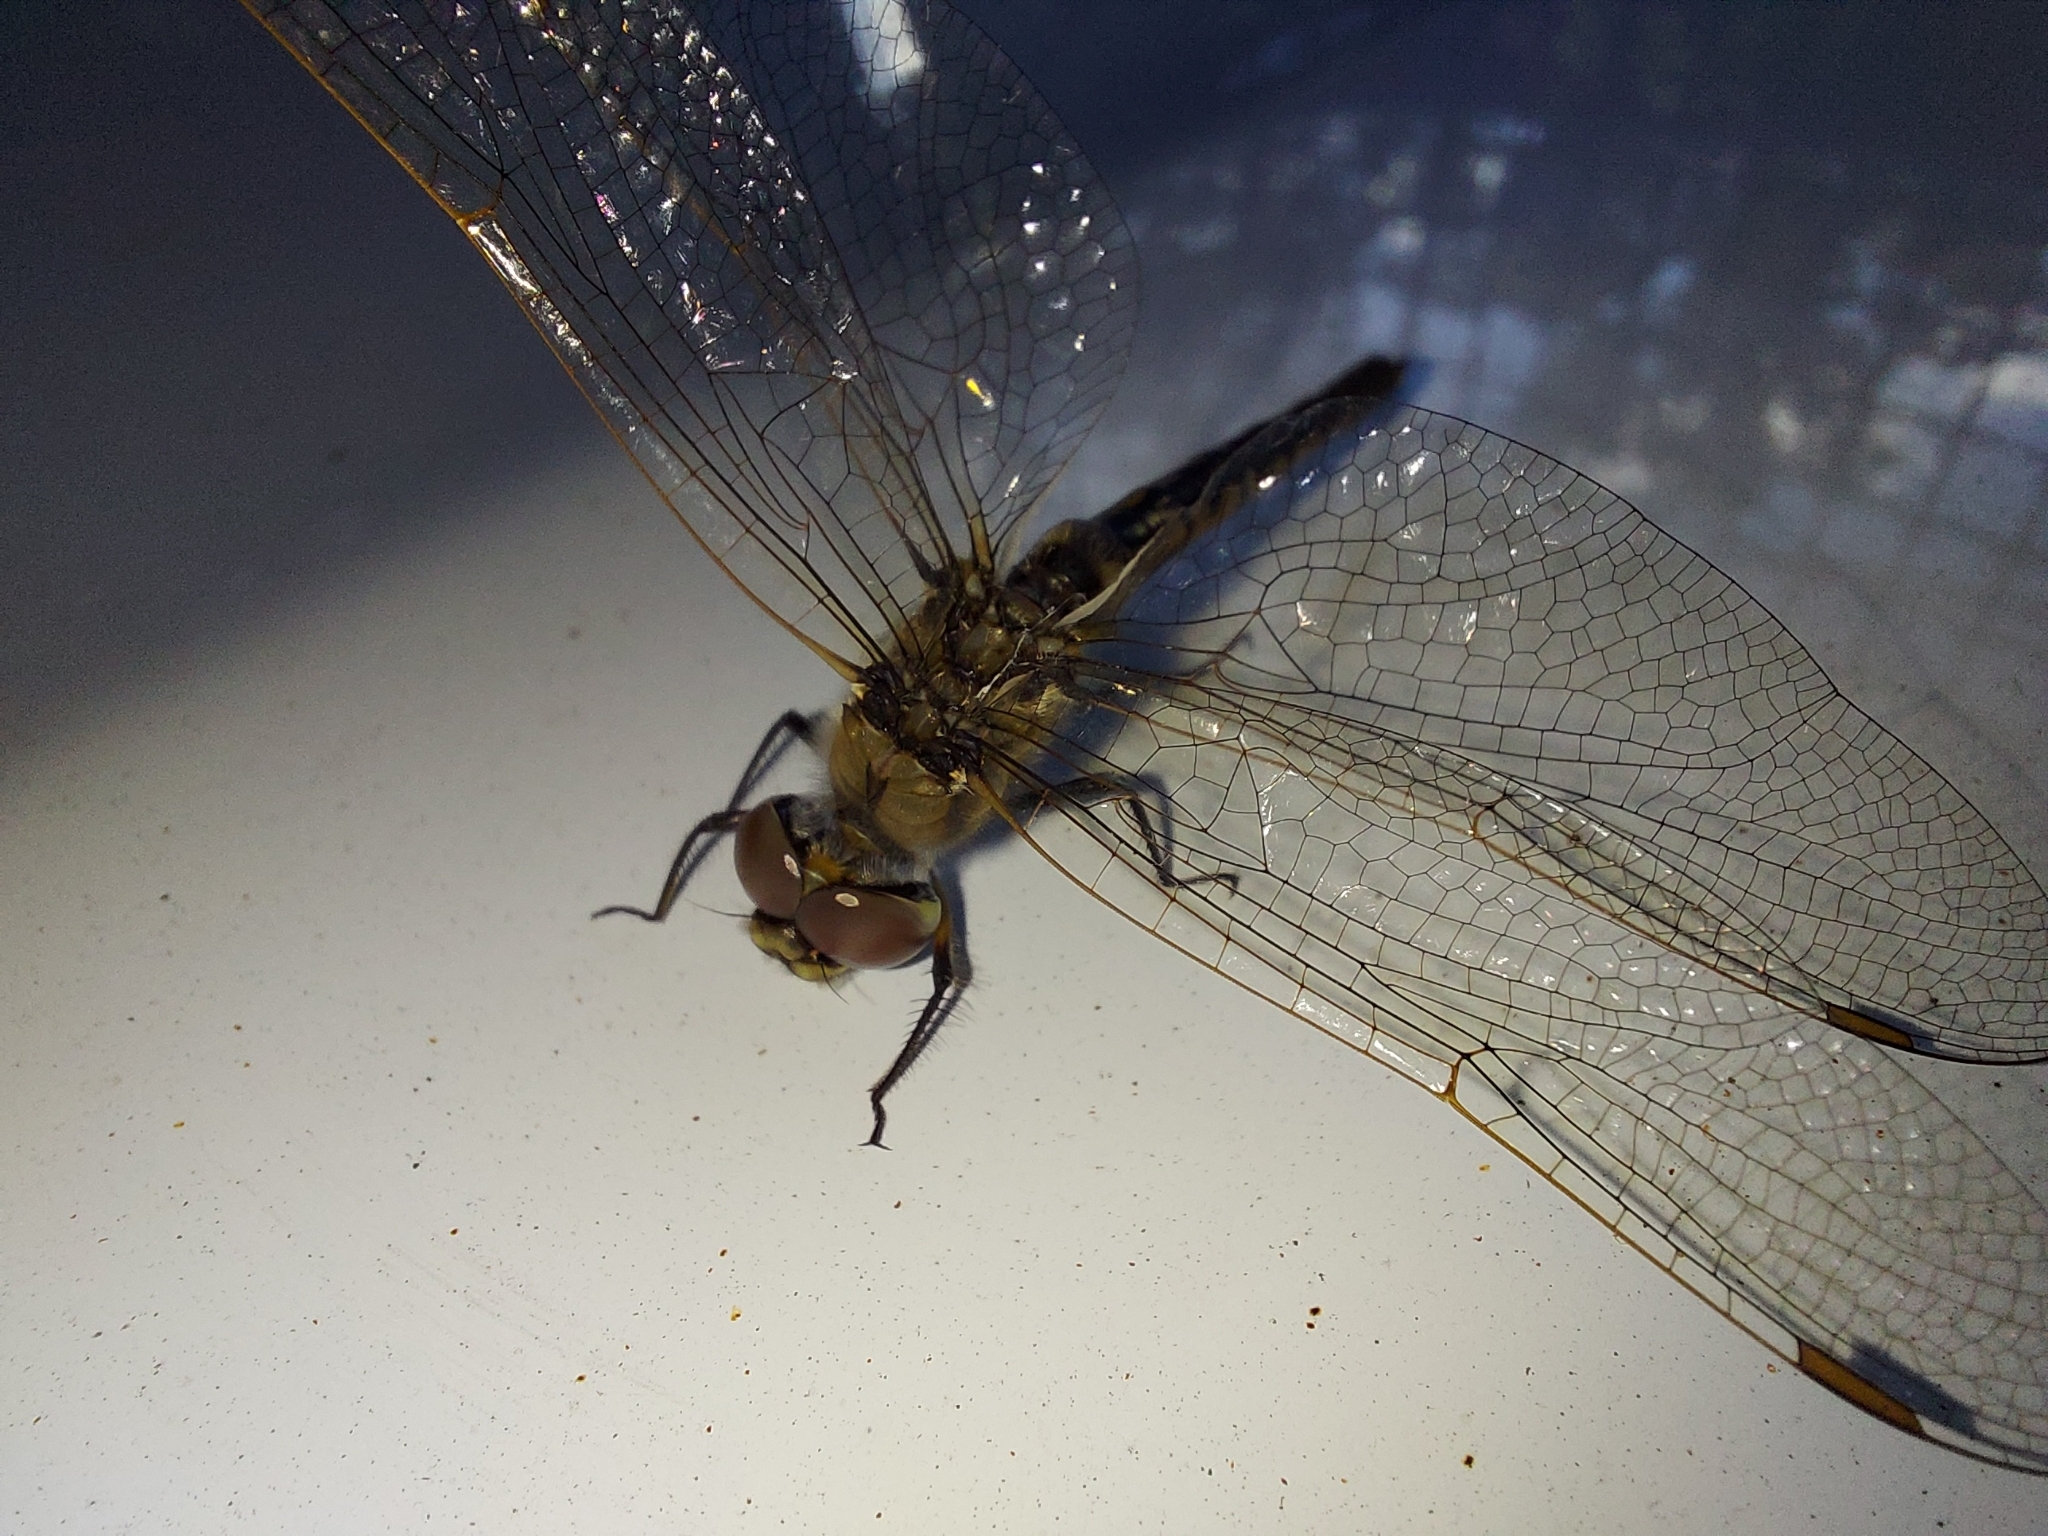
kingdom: Animalia
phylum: Arthropoda
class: Insecta
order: Odonata
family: Corduliidae
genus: Hemicordulia
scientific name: Hemicordulia tau
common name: Tau emerald
